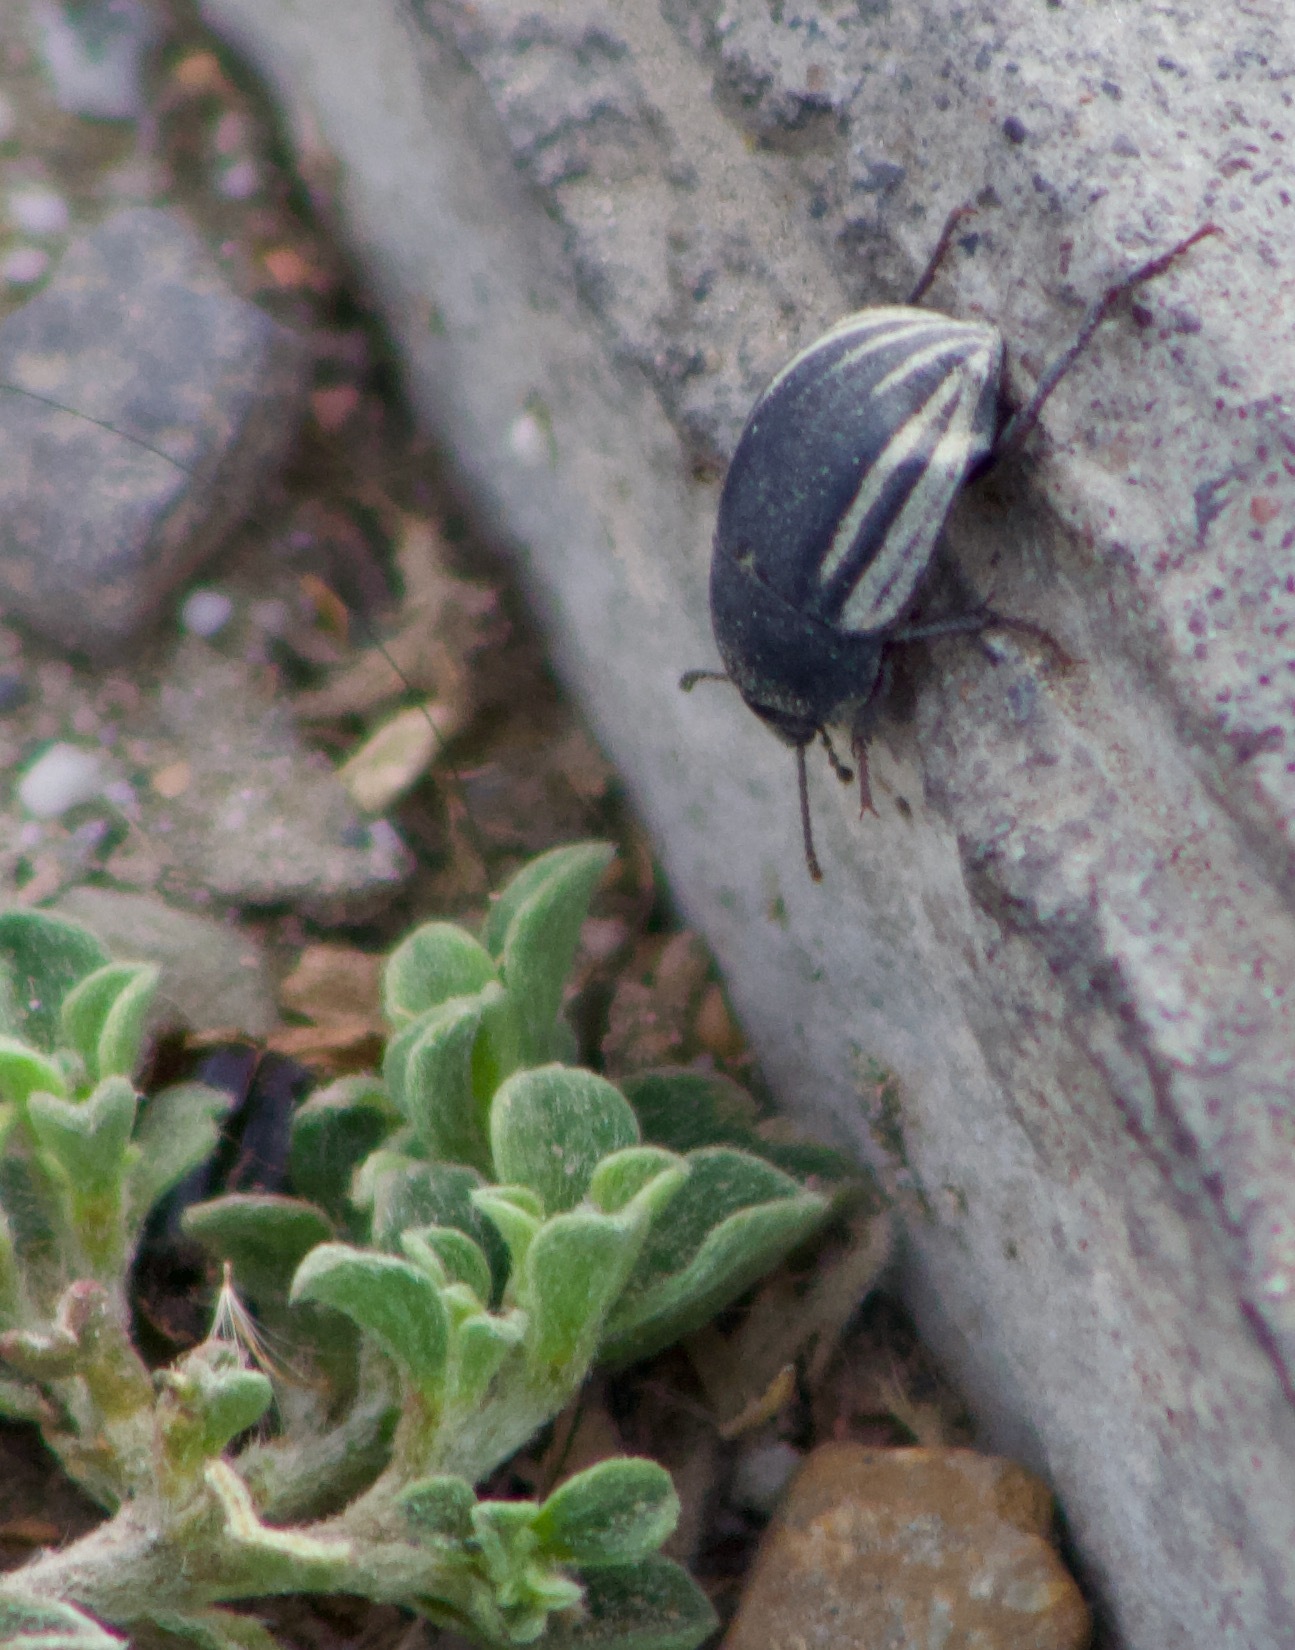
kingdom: Animalia
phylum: Arthropoda
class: Insecta
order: Coleoptera
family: Tenebrionidae
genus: Praocis
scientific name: Praocis spinolai
